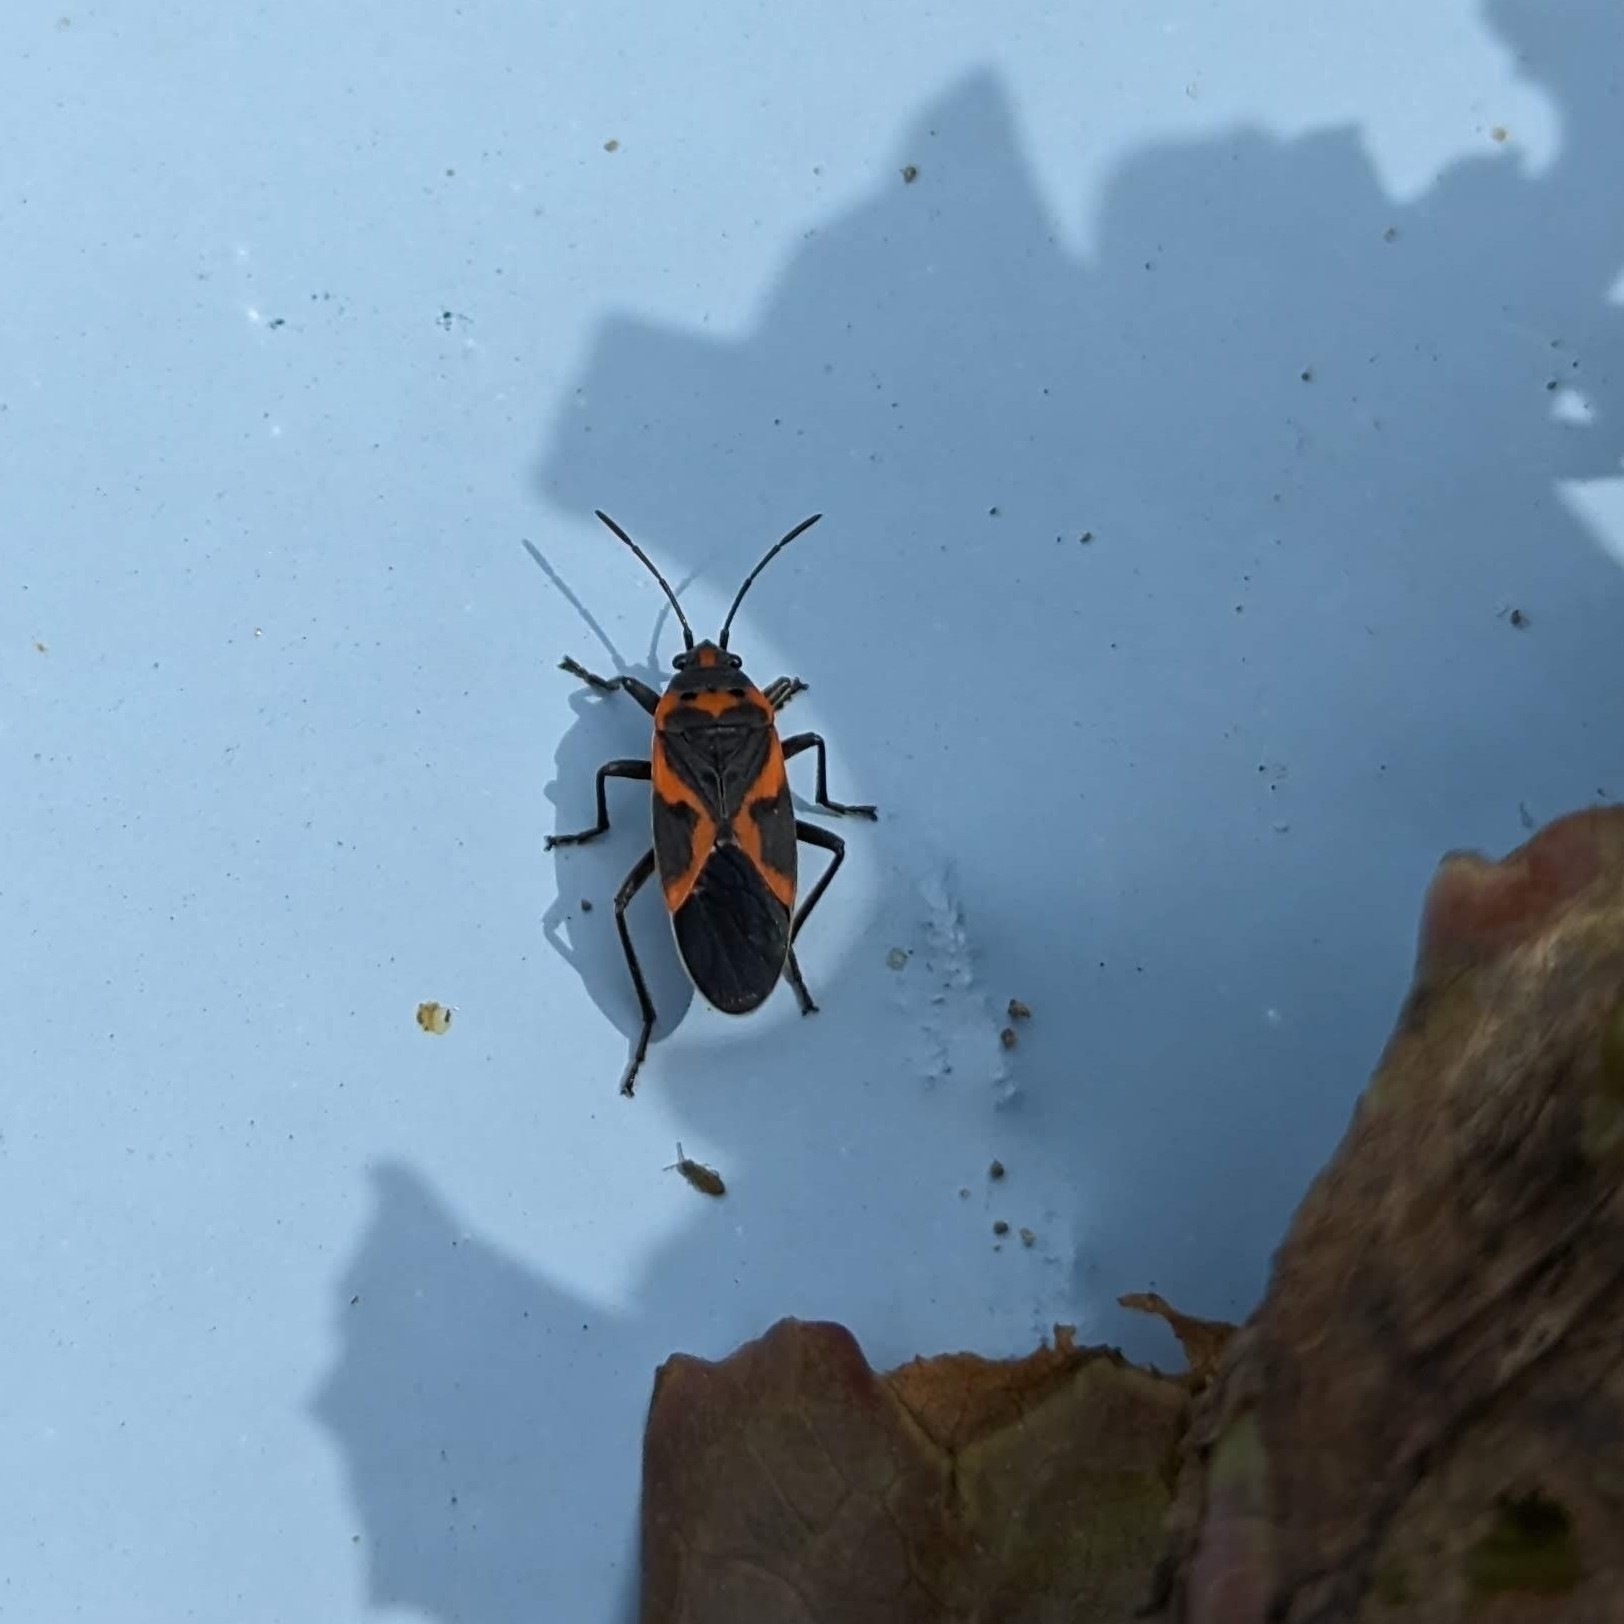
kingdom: Animalia
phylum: Arthropoda
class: Insecta
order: Hemiptera
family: Lygaeidae
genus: Lygaeus
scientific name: Lygaeus kalmii
